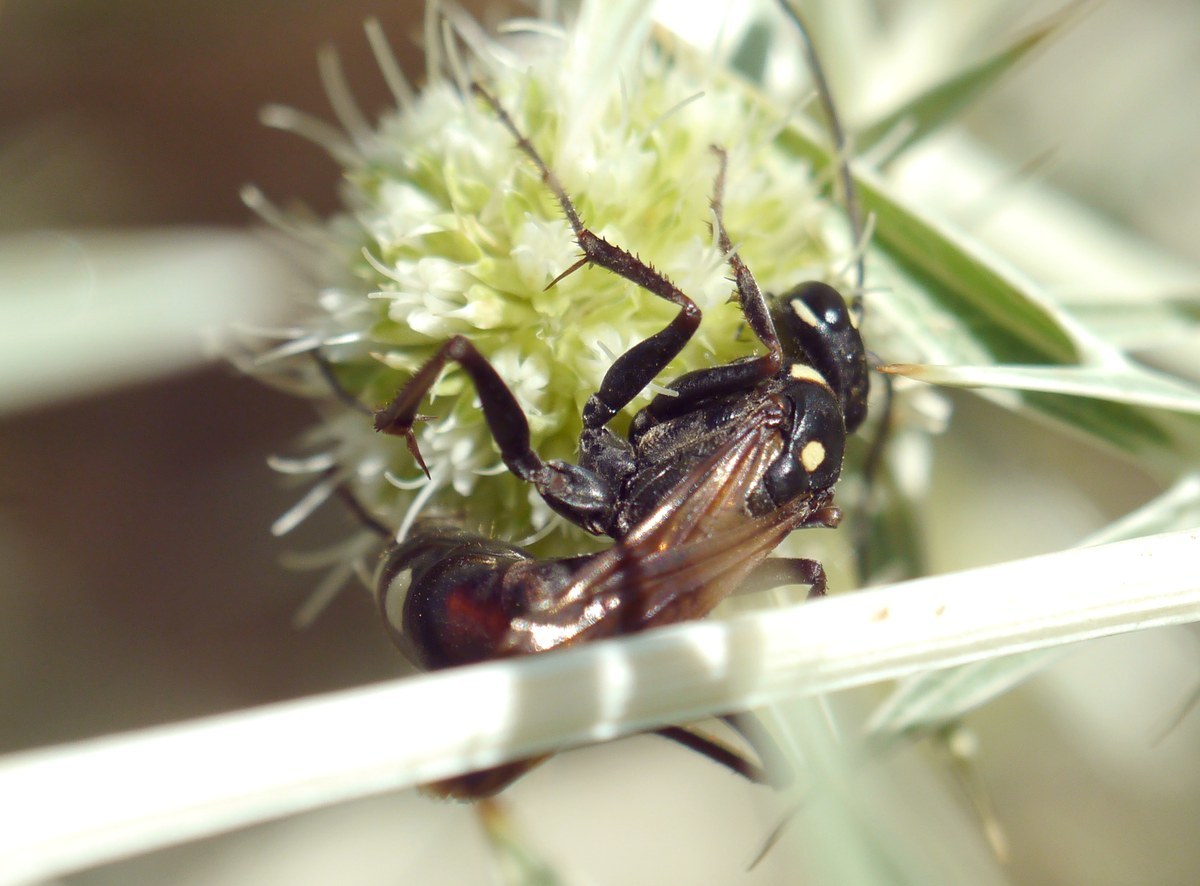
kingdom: Animalia
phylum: Arthropoda
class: Insecta
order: Hymenoptera
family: Pompilidae
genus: Cryptocheilus
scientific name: Cryptocheilus egregius
